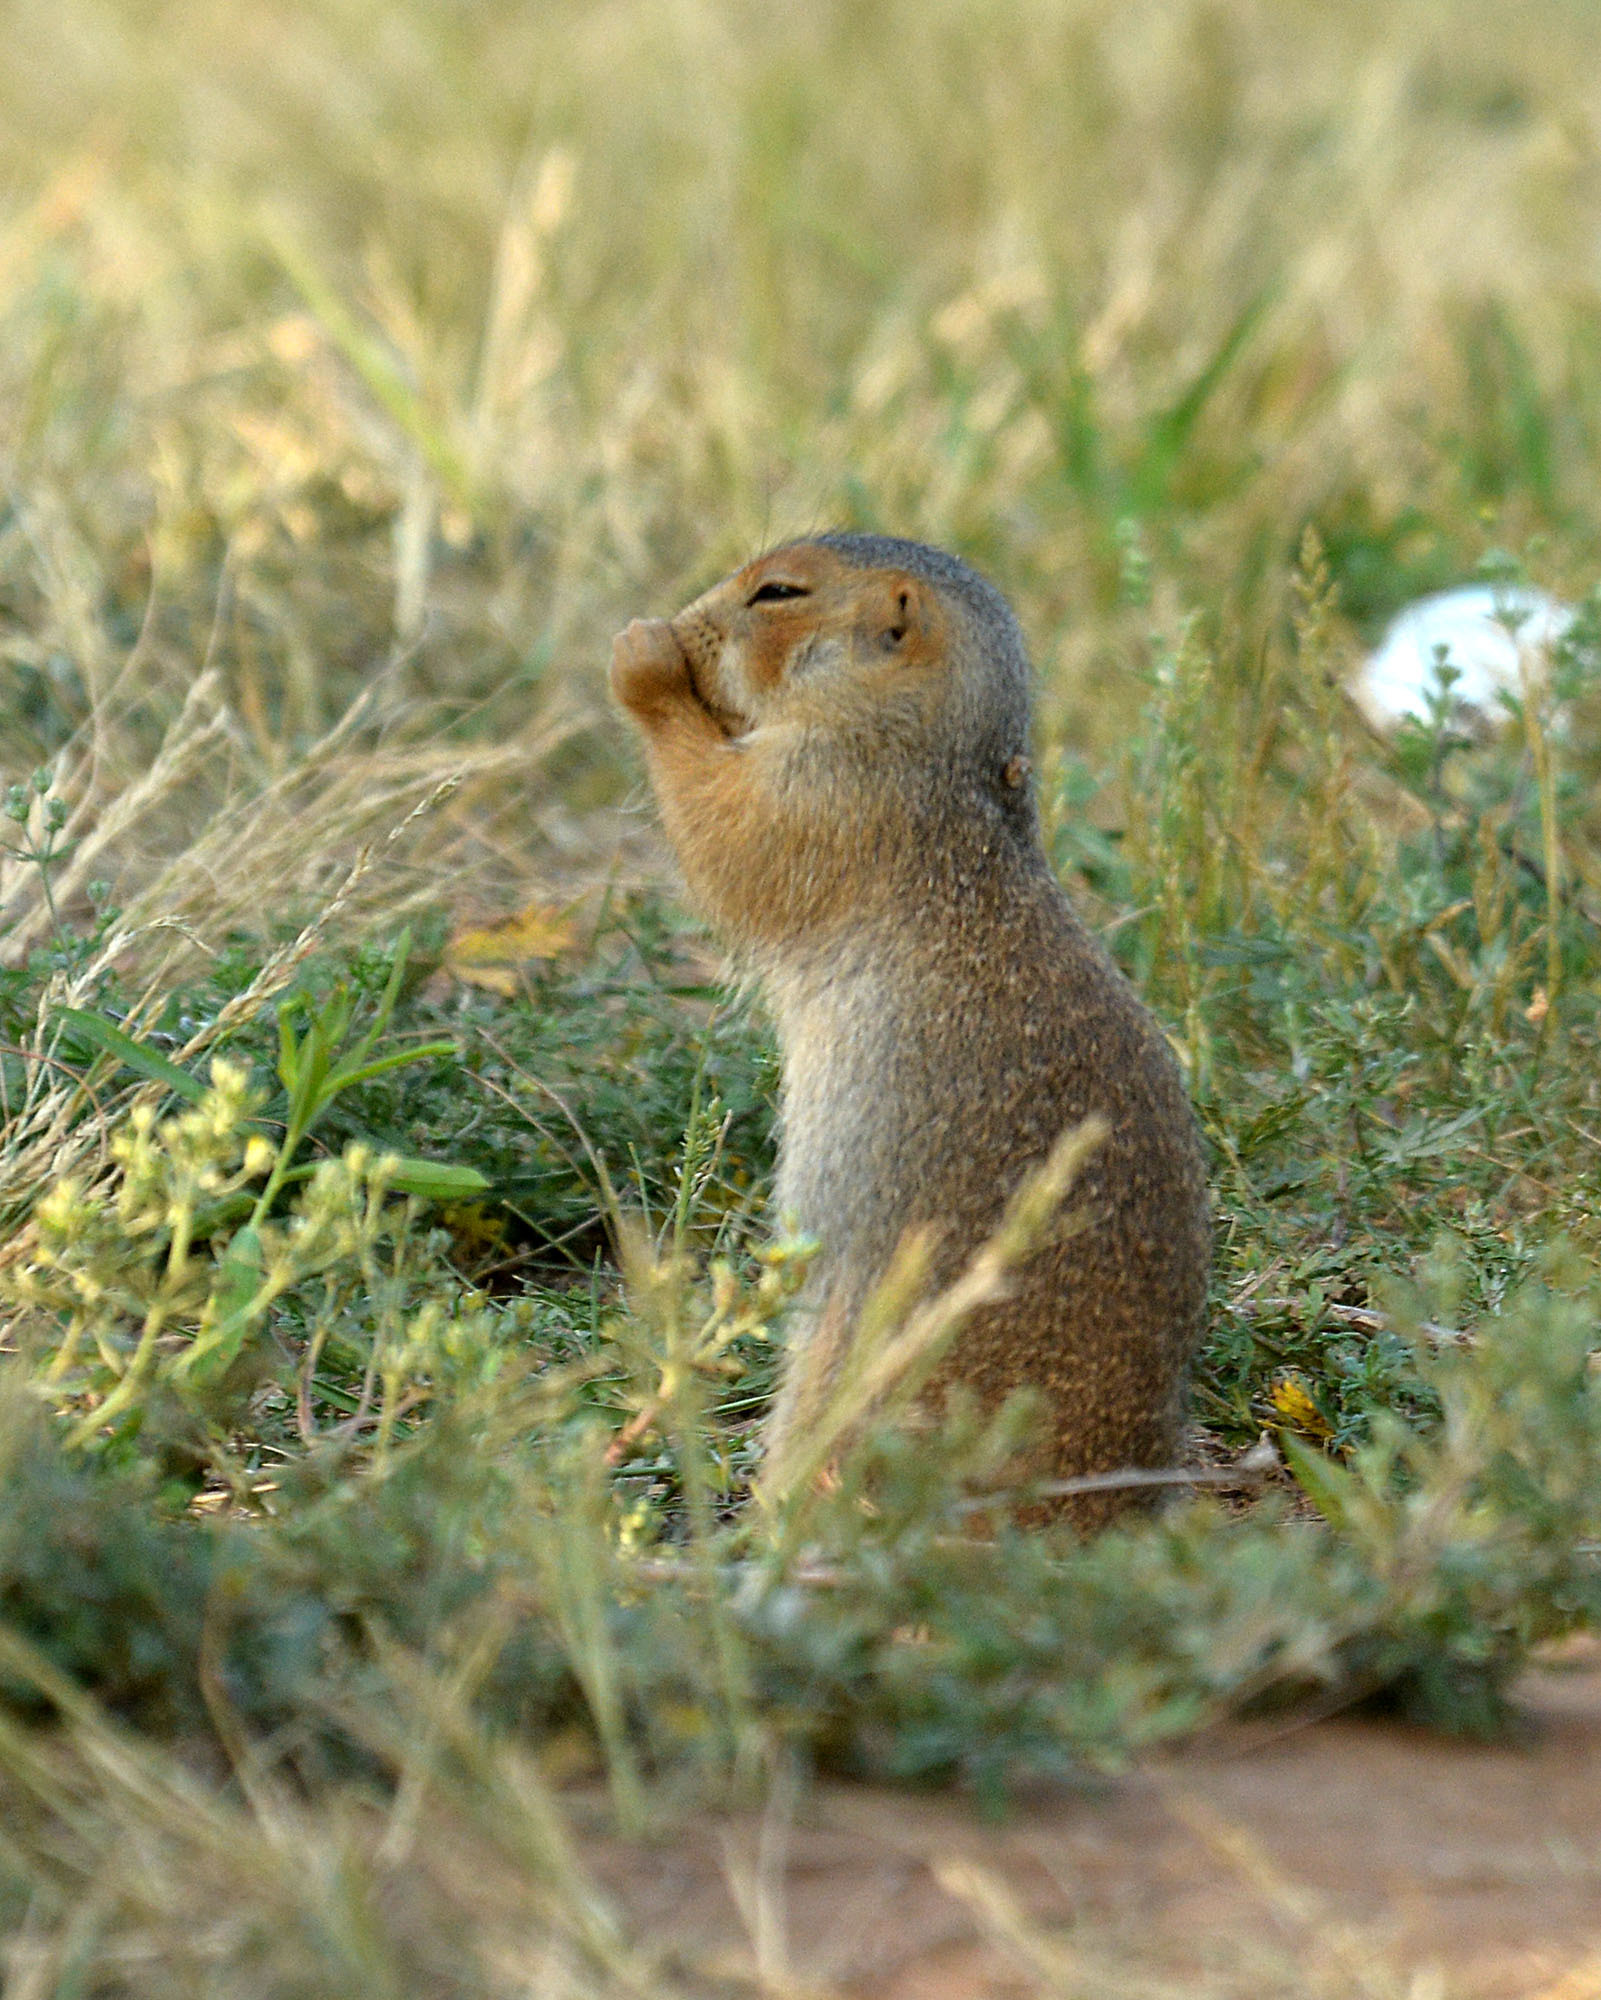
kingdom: Animalia
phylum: Chordata
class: Mammalia
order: Rodentia
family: Sciuridae
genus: Spermophilus
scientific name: Spermophilus major
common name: Russet ground squirrel
